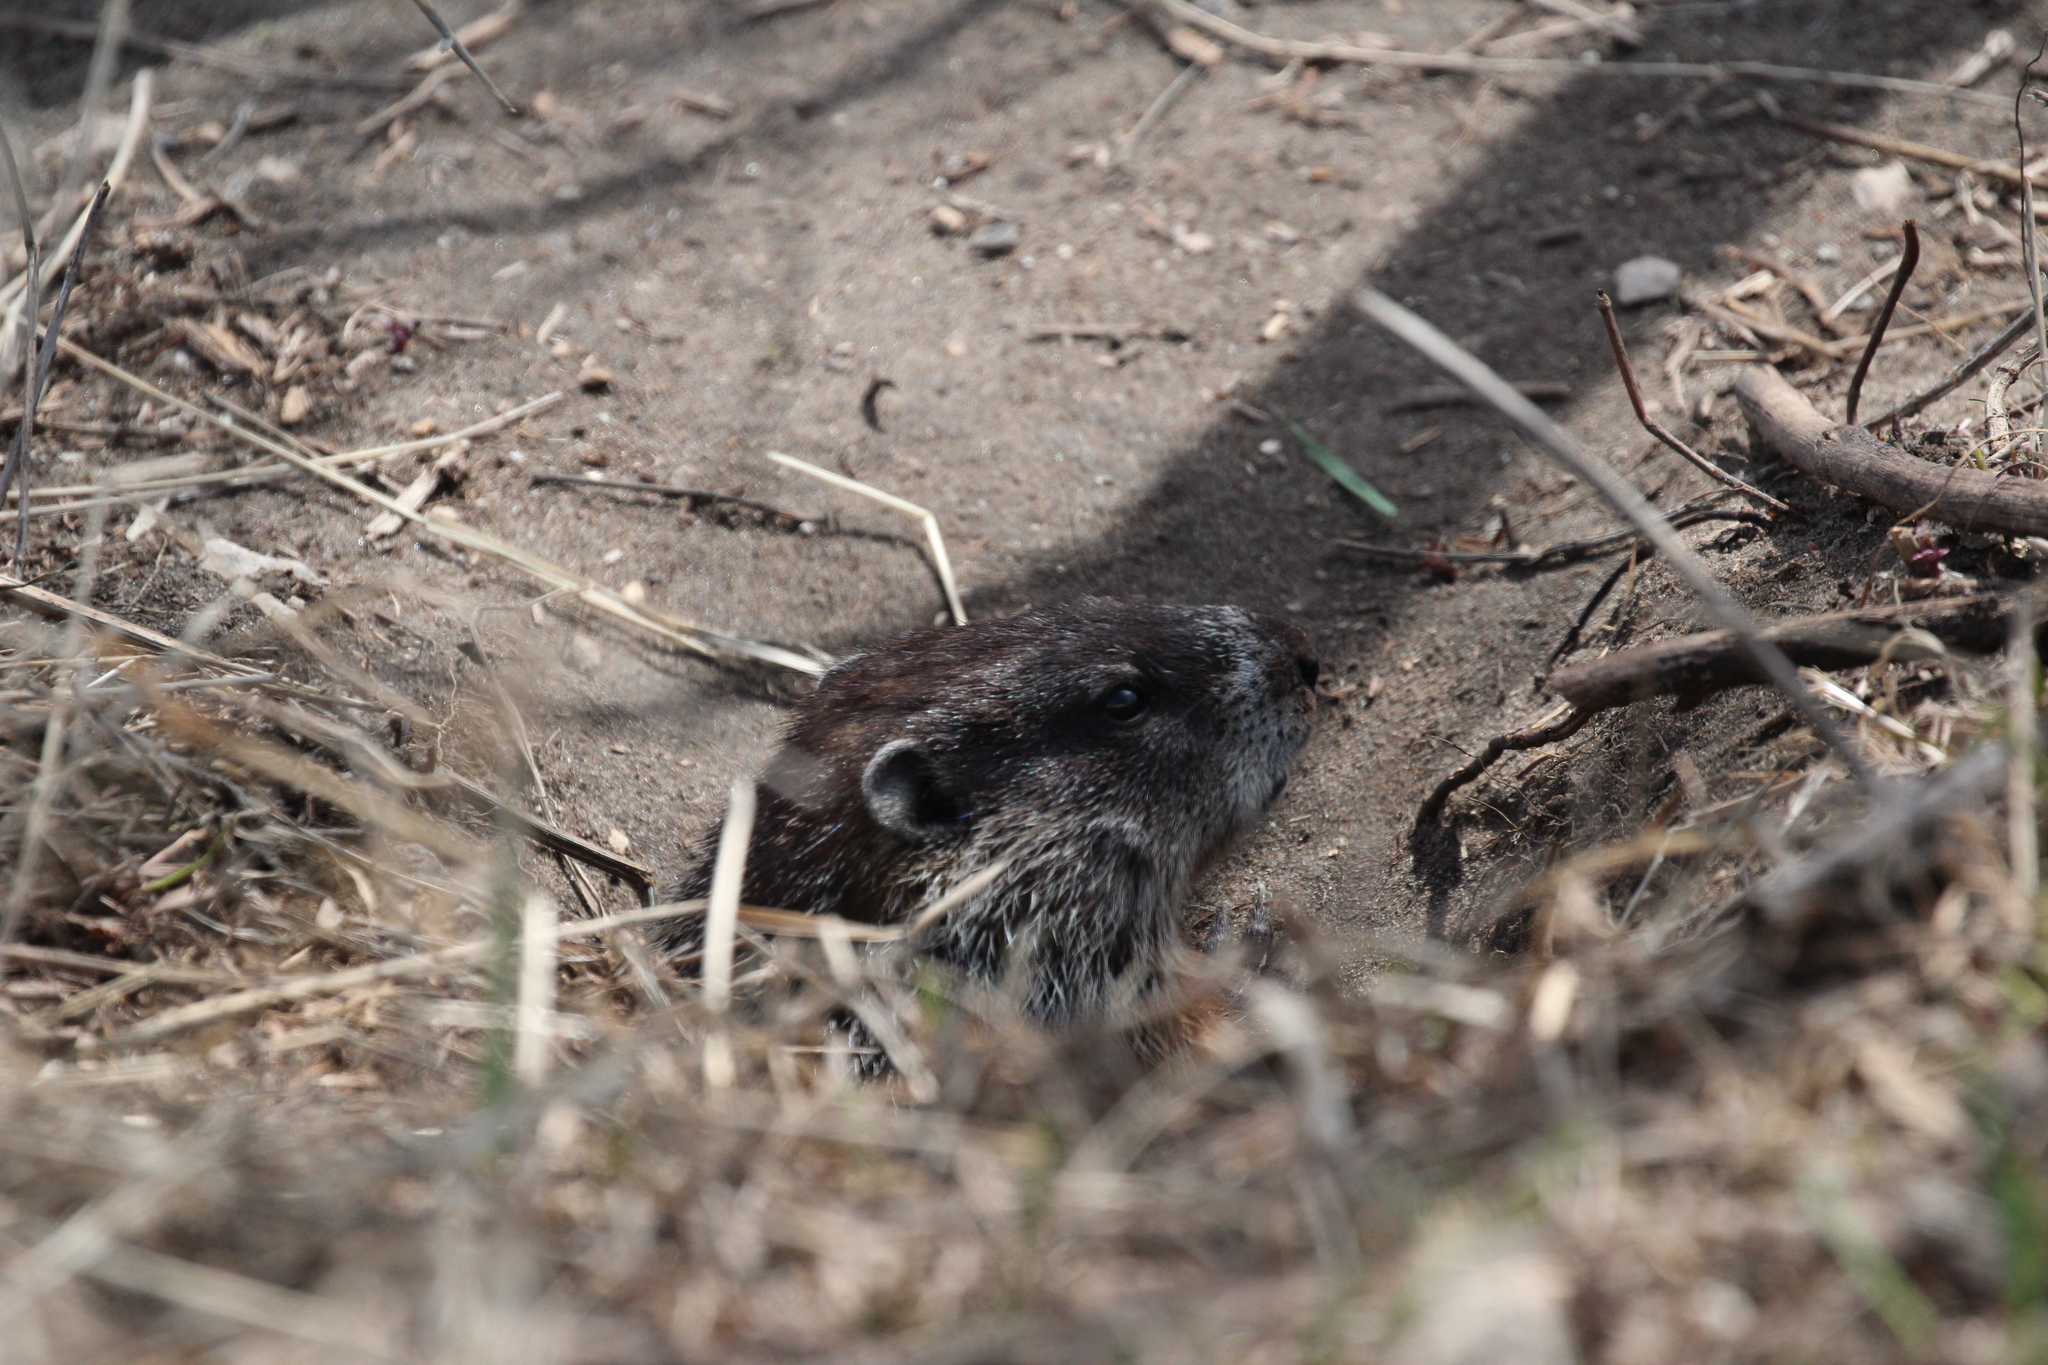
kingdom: Animalia
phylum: Chordata
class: Mammalia
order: Rodentia
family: Sciuridae
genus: Marmota
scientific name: Marmota monax
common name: Groundhog
